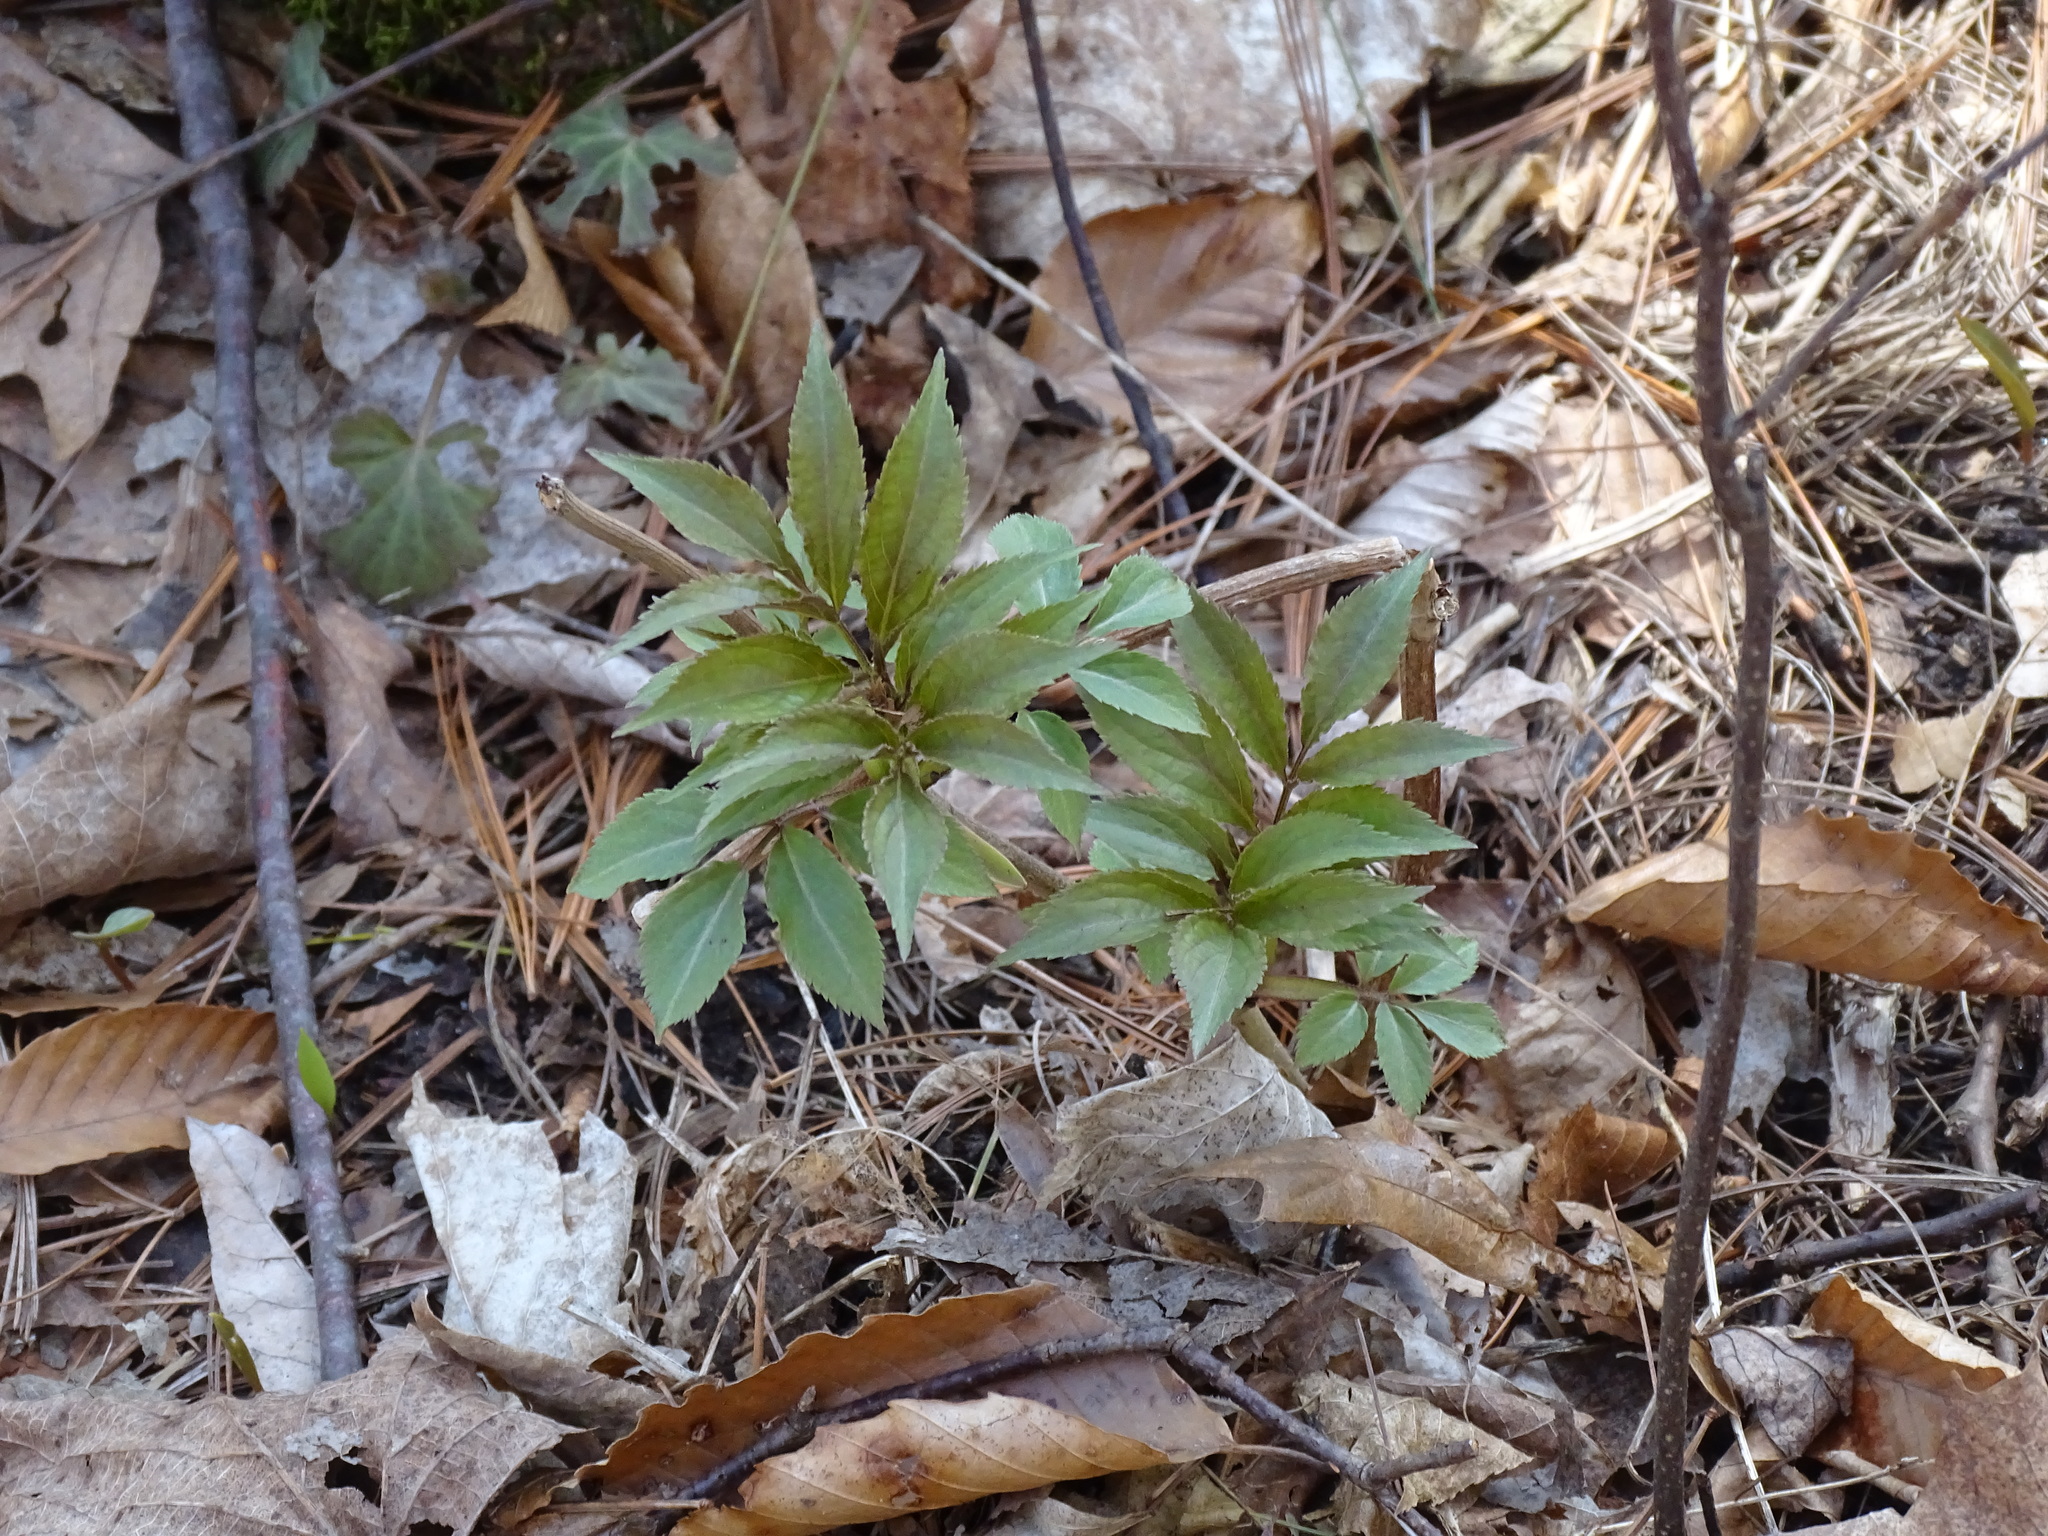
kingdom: Plantae
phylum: Tracheophyta
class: Magnoliopsida
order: Dipsacales
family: Viburnaceae
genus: Sambucus
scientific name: Sambucus racemosa
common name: Red-berried elder
